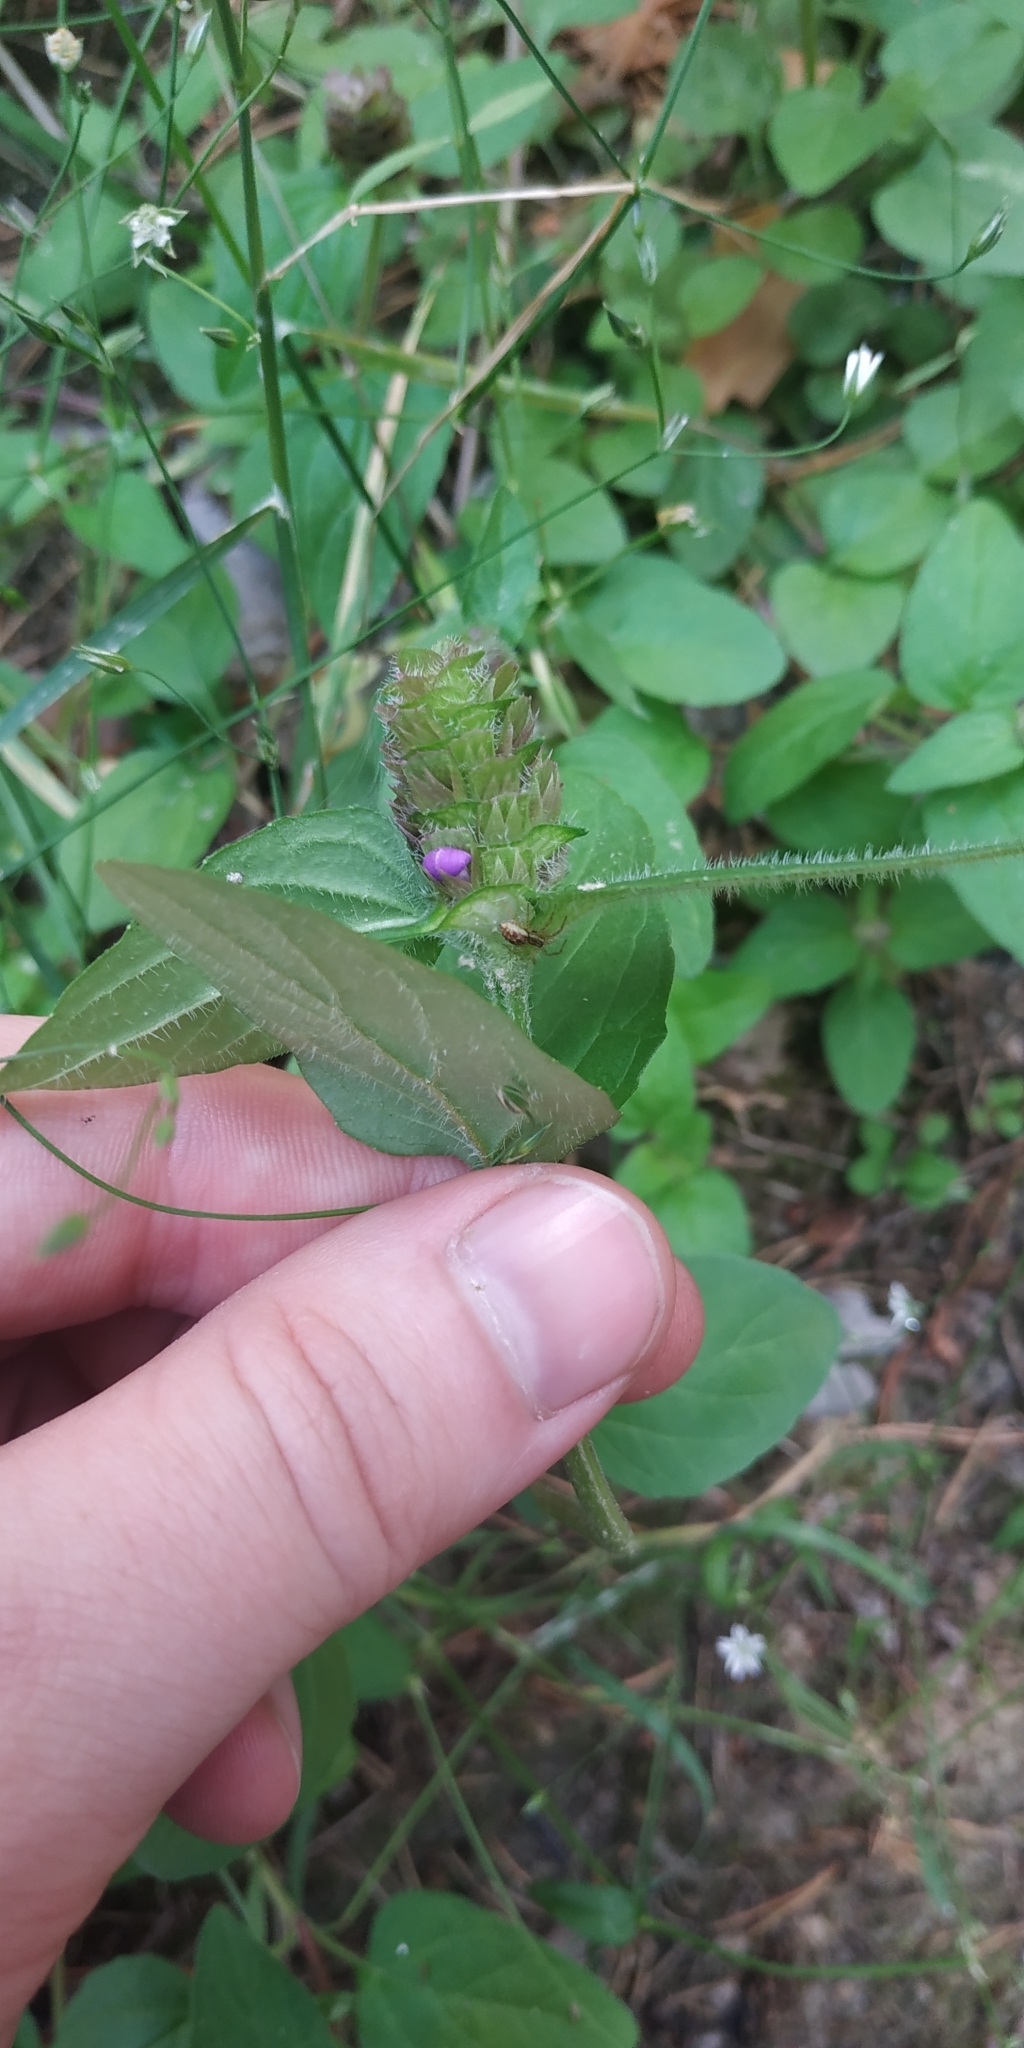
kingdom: Plantae
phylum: Tracheophyta
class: Magnoliopsida
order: Lamiales
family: Lamiaceae
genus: Prunella
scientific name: Prunella vulgaris
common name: Heal-all
